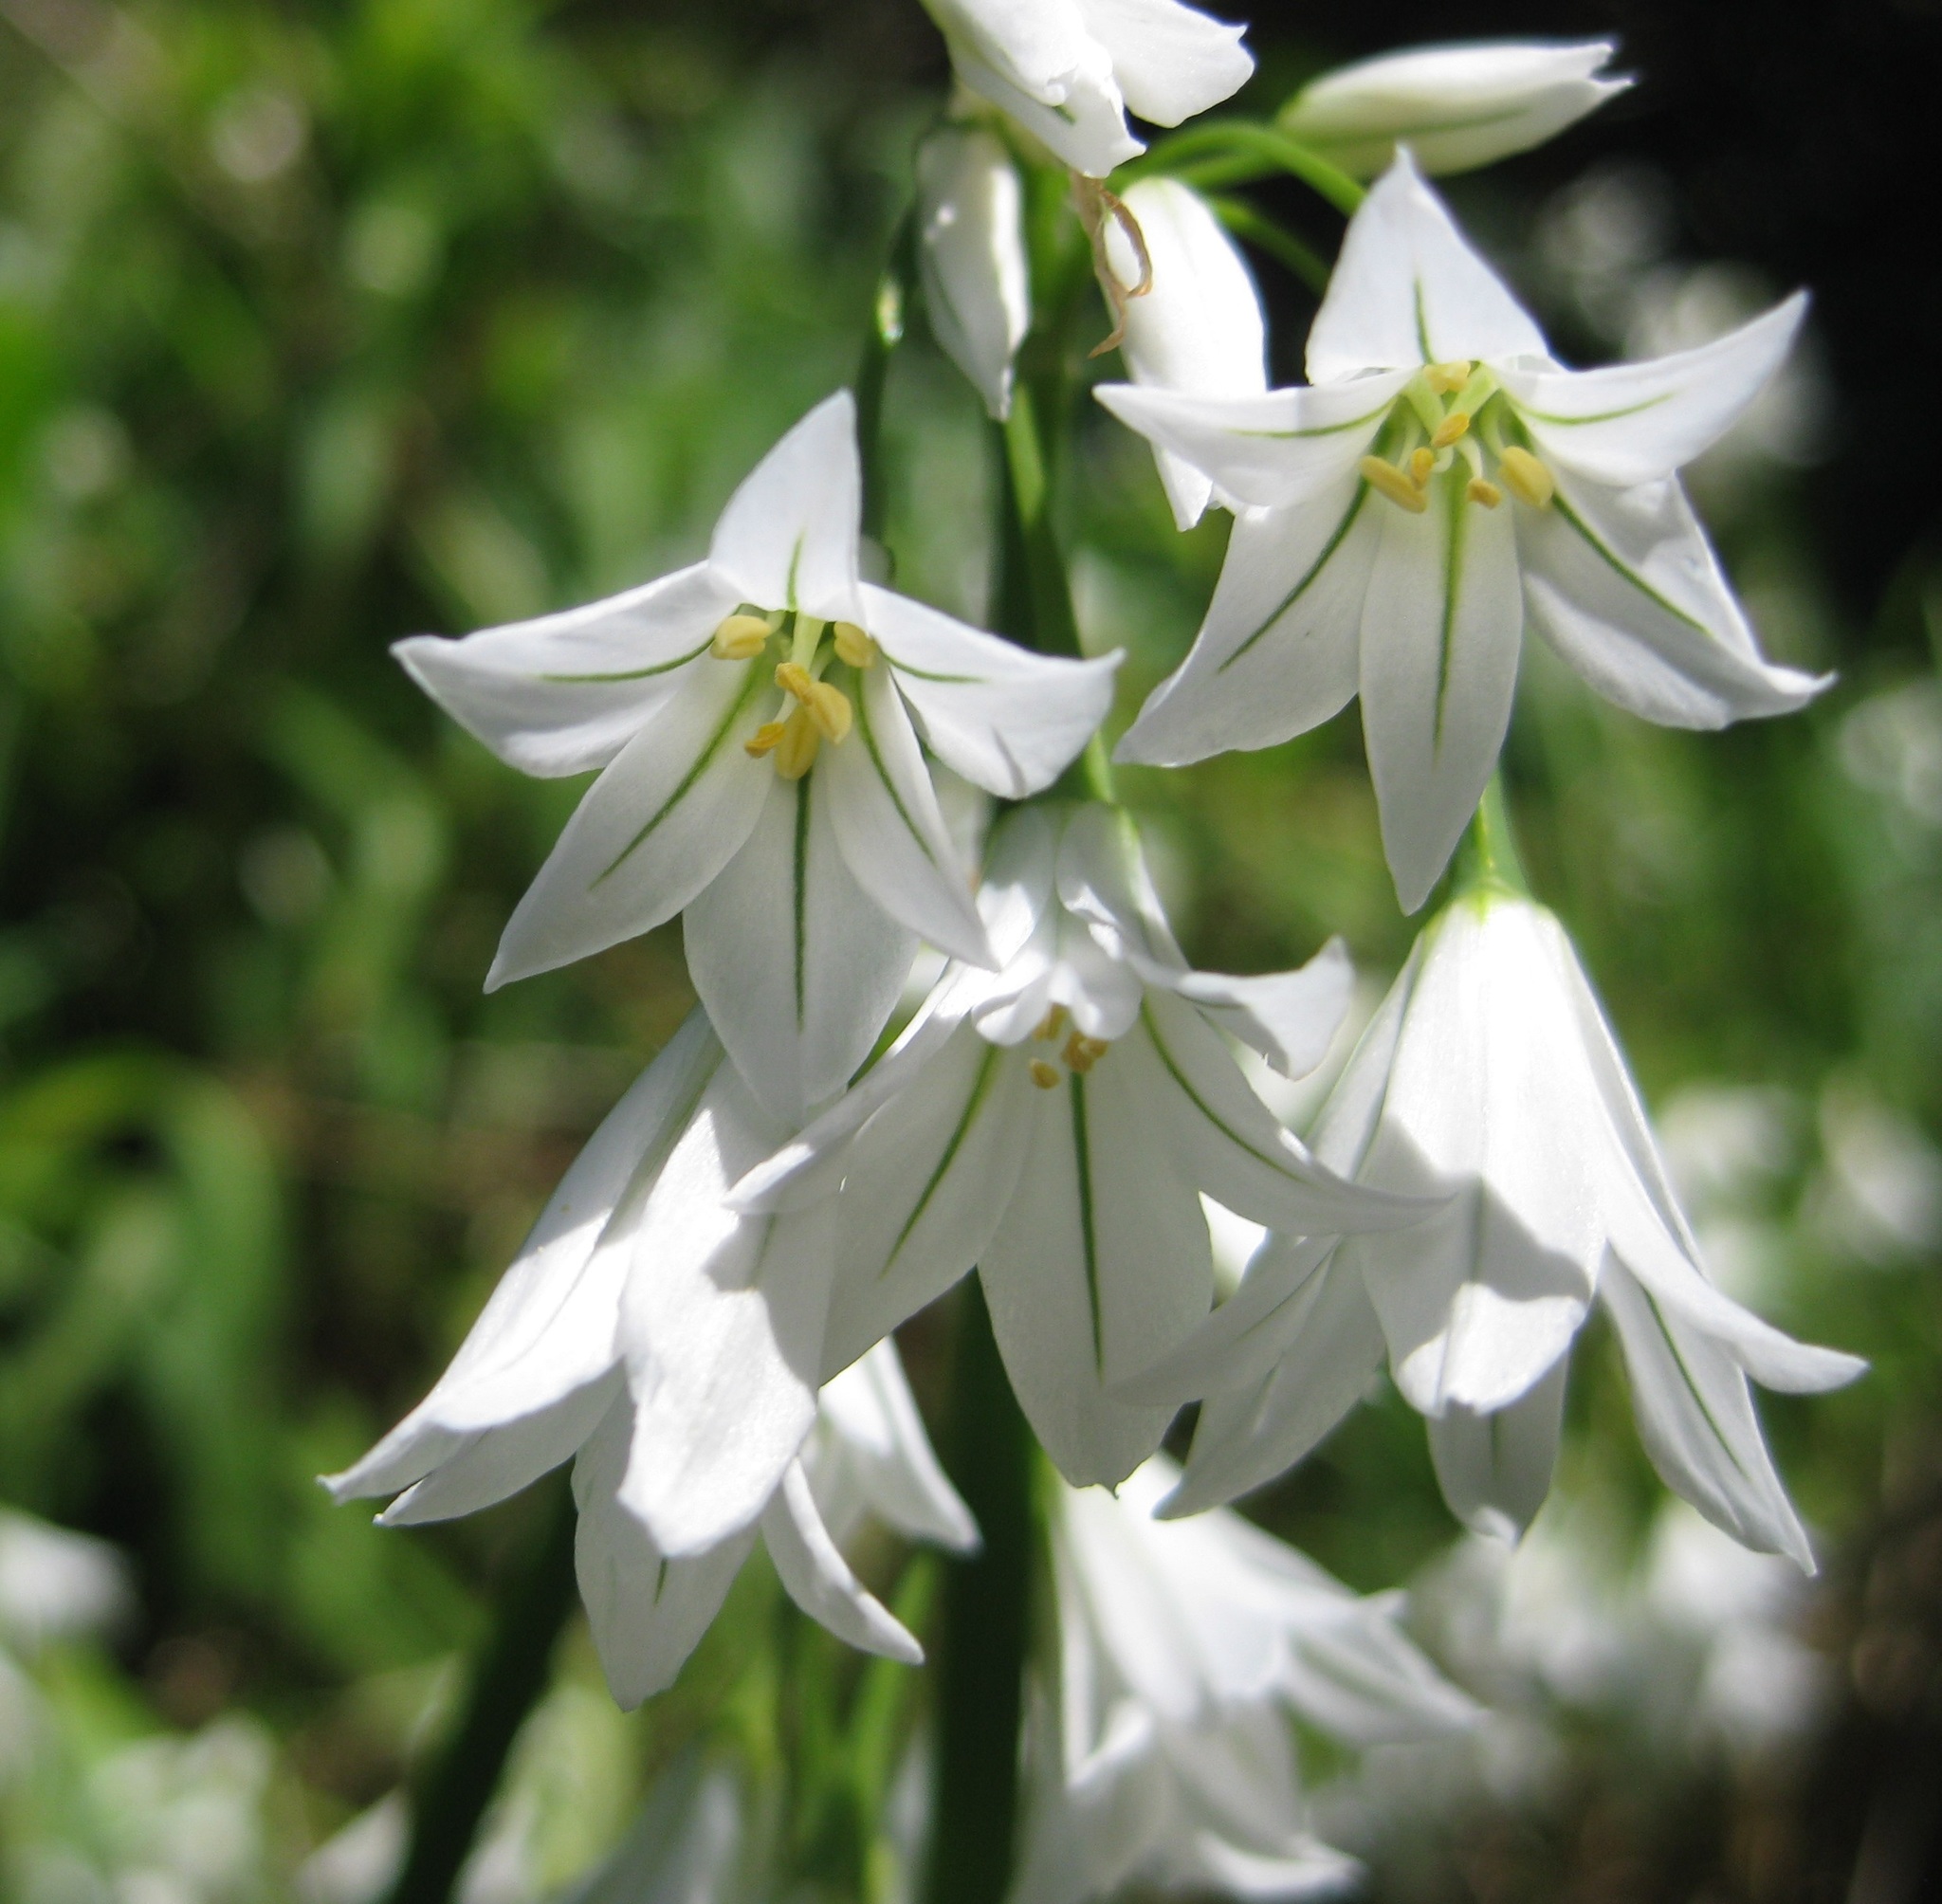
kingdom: Plantae
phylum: Tracheophyta
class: Liliopsida
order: Asparagales
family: Amaryllidaceae
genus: Allium
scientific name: Allium triquetrum
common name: Three-cornered garlic
